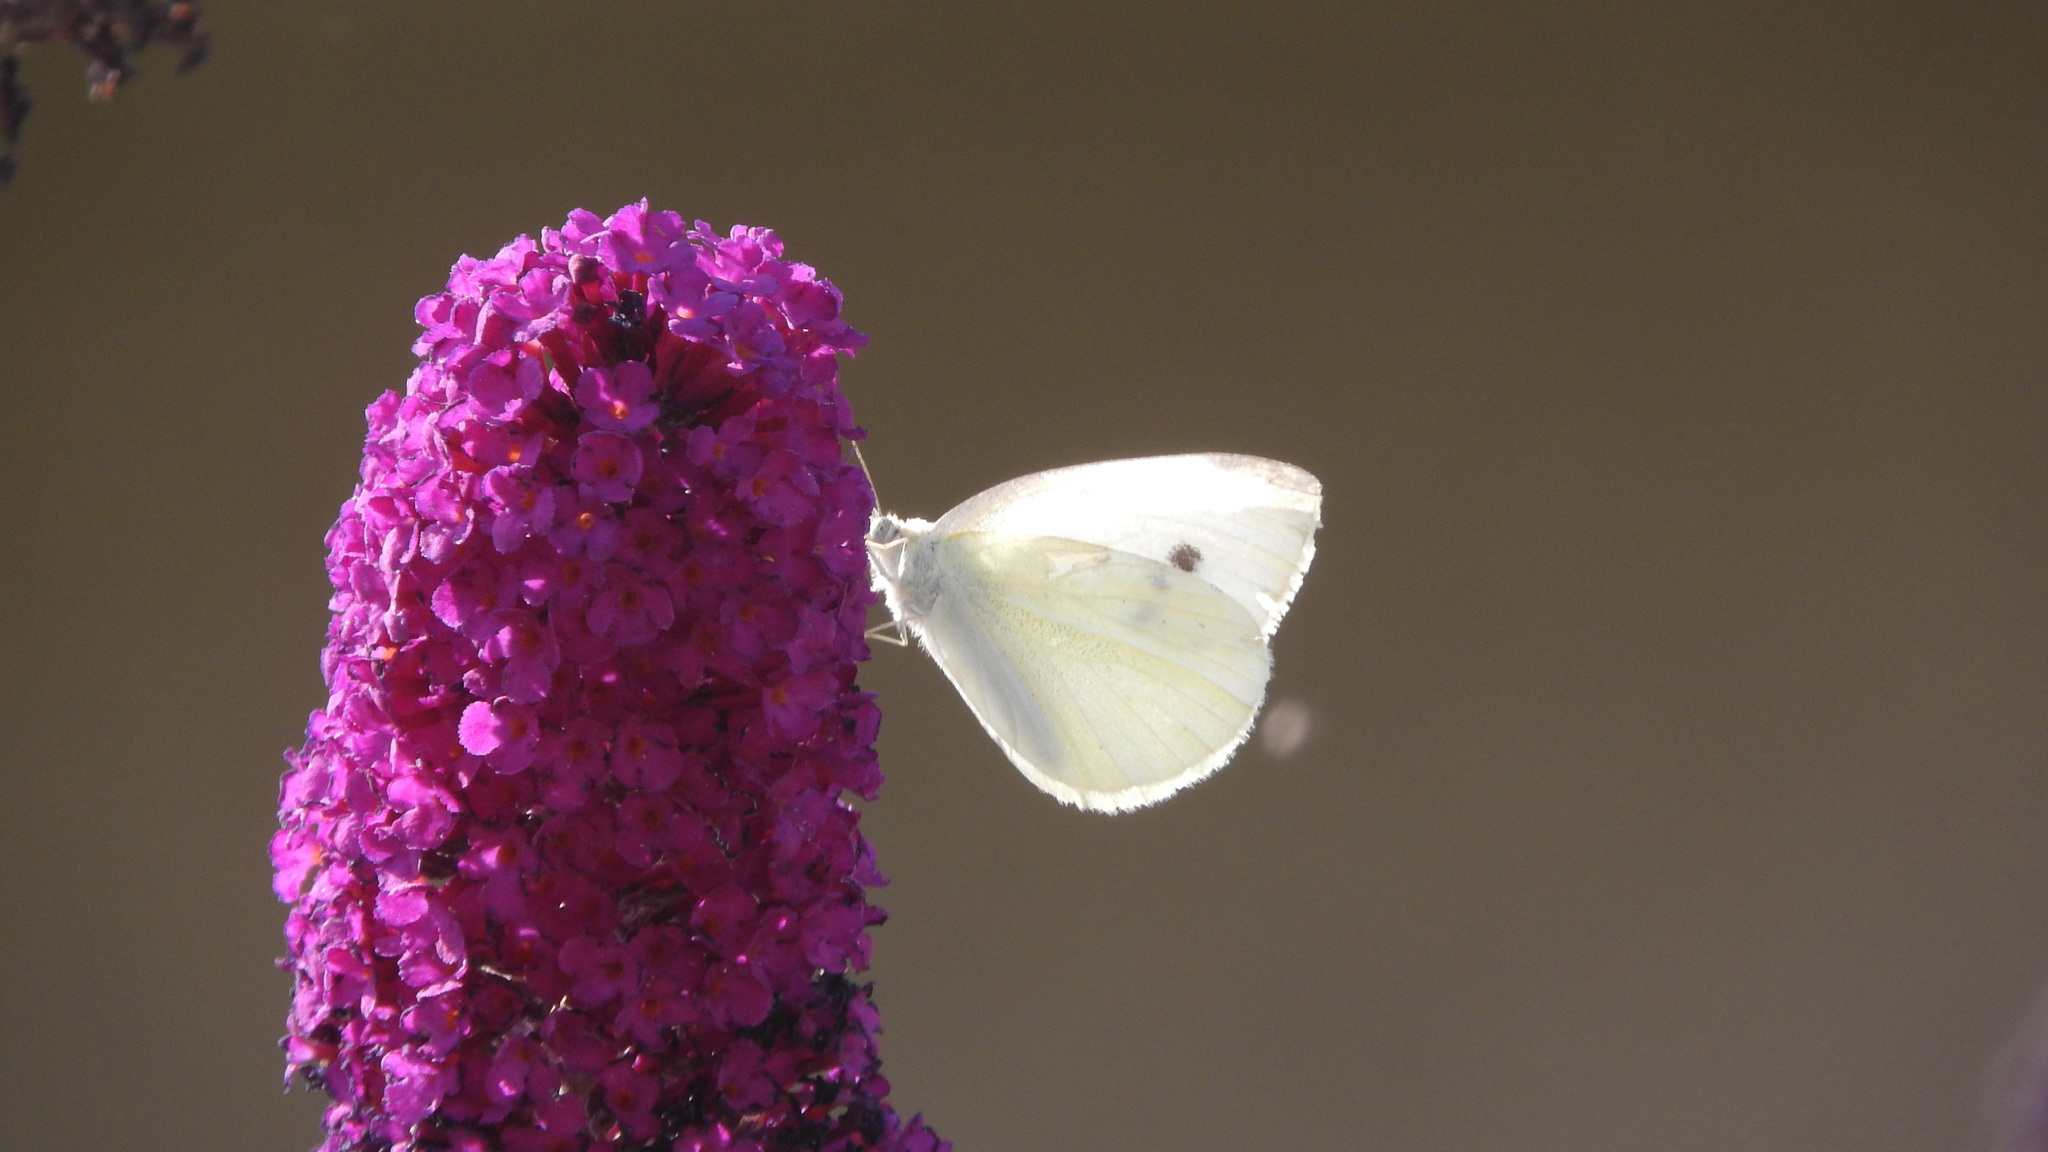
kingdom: Animalia
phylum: Arthropoda
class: Insecta
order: Lepidoptera
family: Pieridae
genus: Pieris
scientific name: Pieris rapae
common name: Small white
